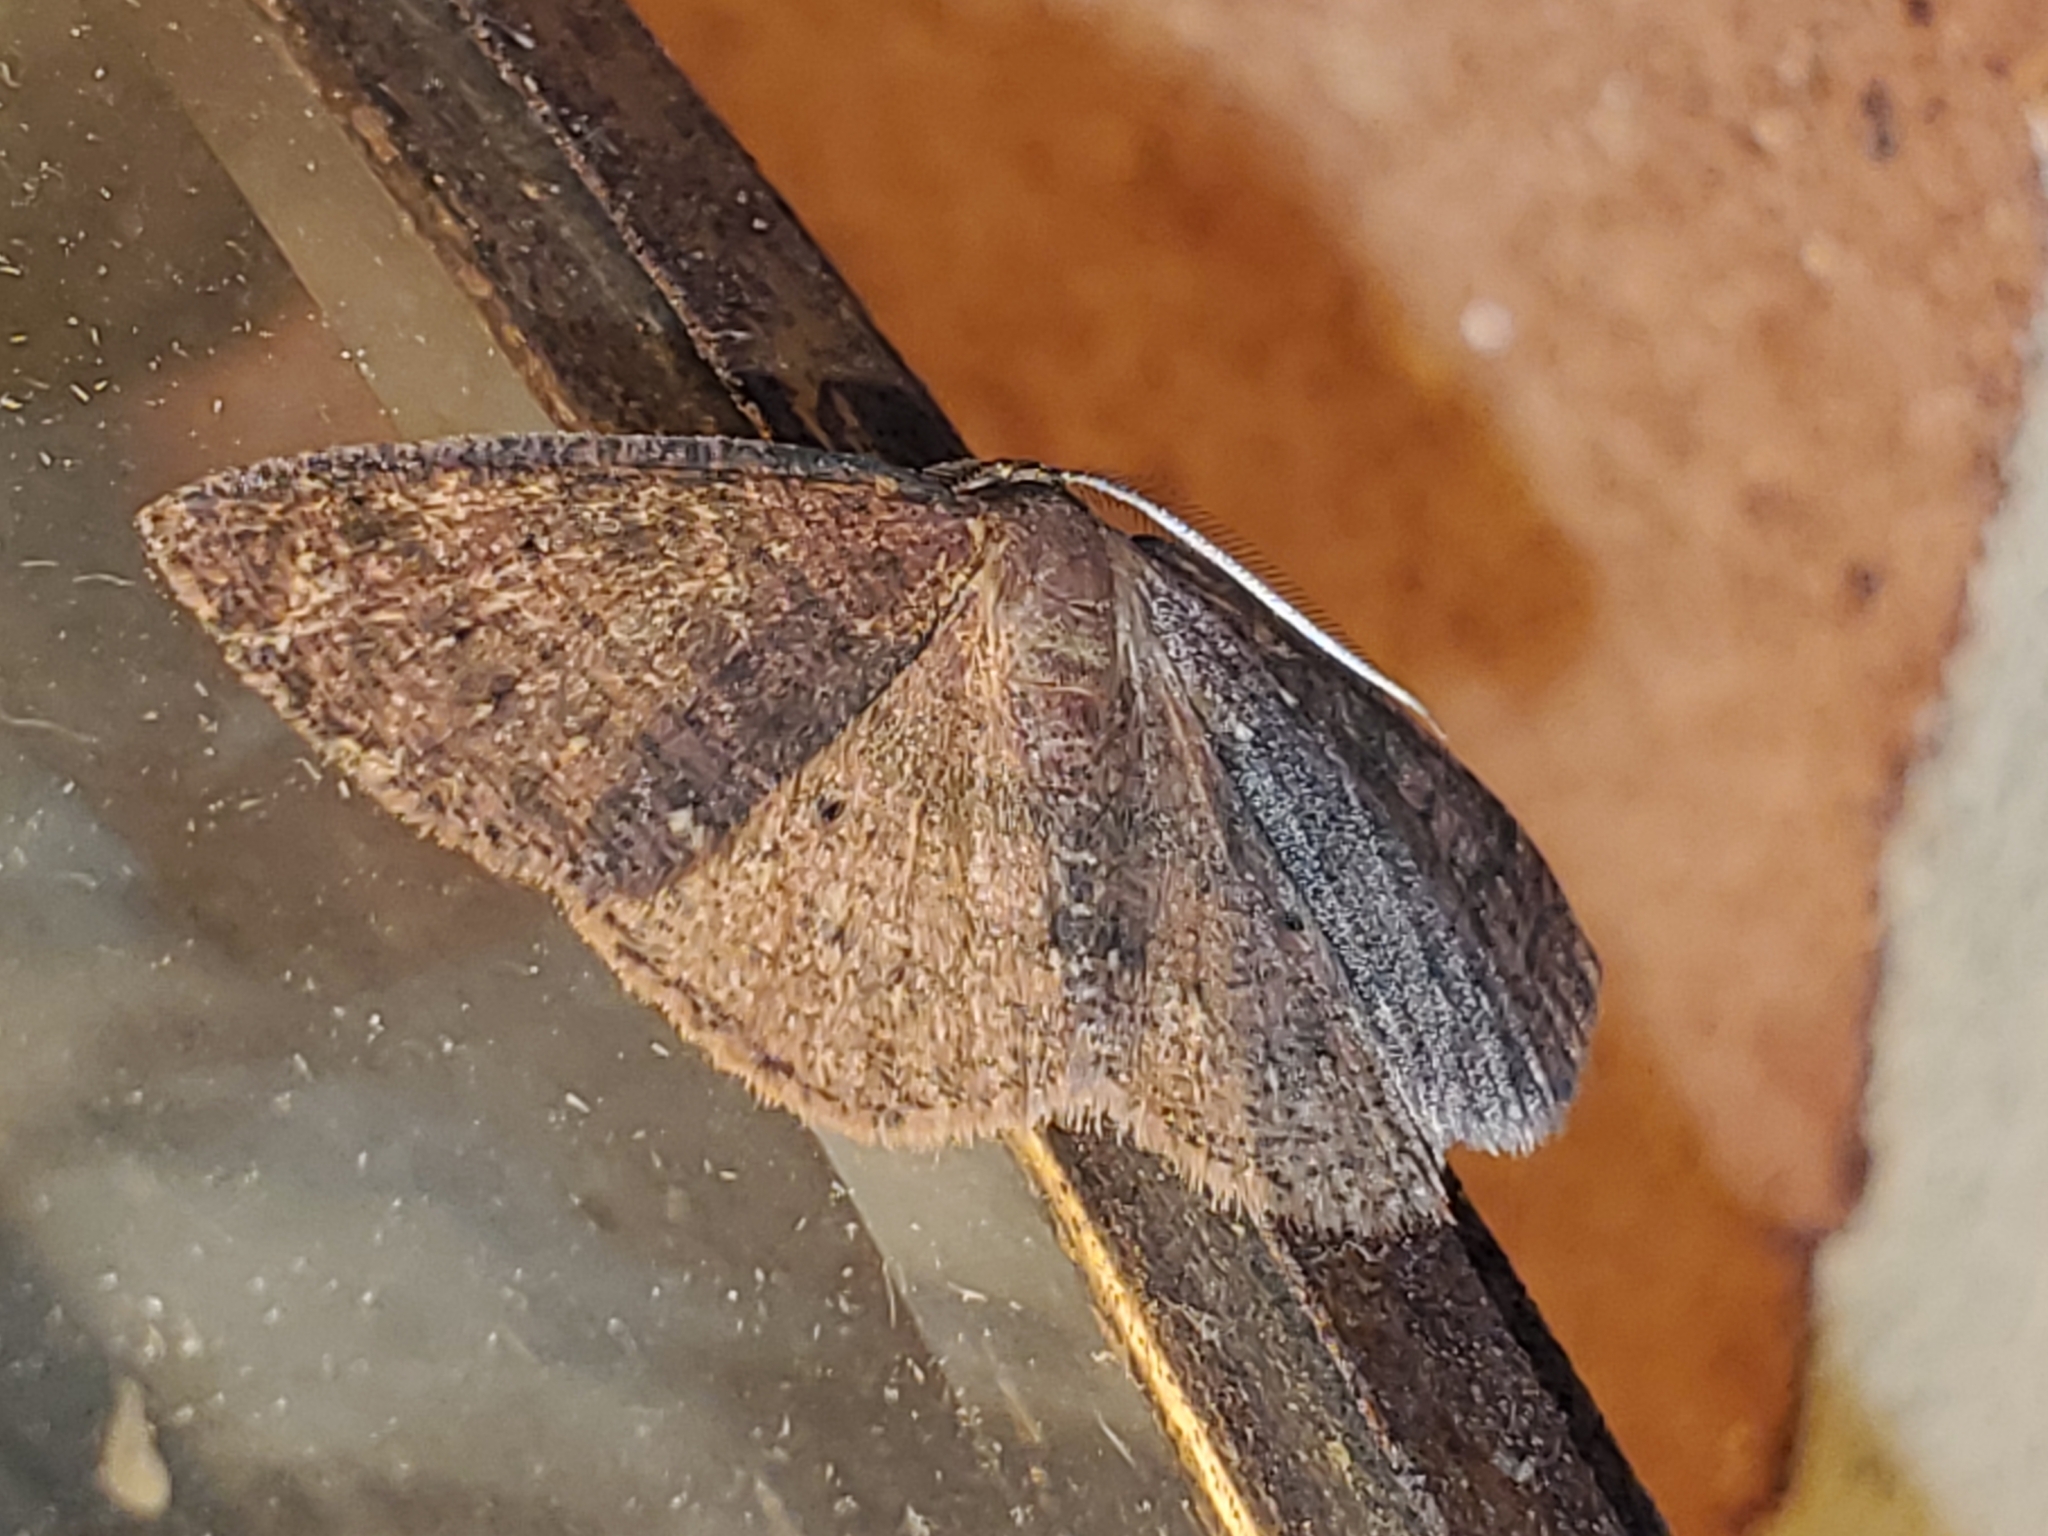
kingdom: Animalia
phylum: Arthropoda
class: Insecta
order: Lepidoptera
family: Geometridae
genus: Ilexia
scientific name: Ilexia intractata
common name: Black-dotted ruddy moth
